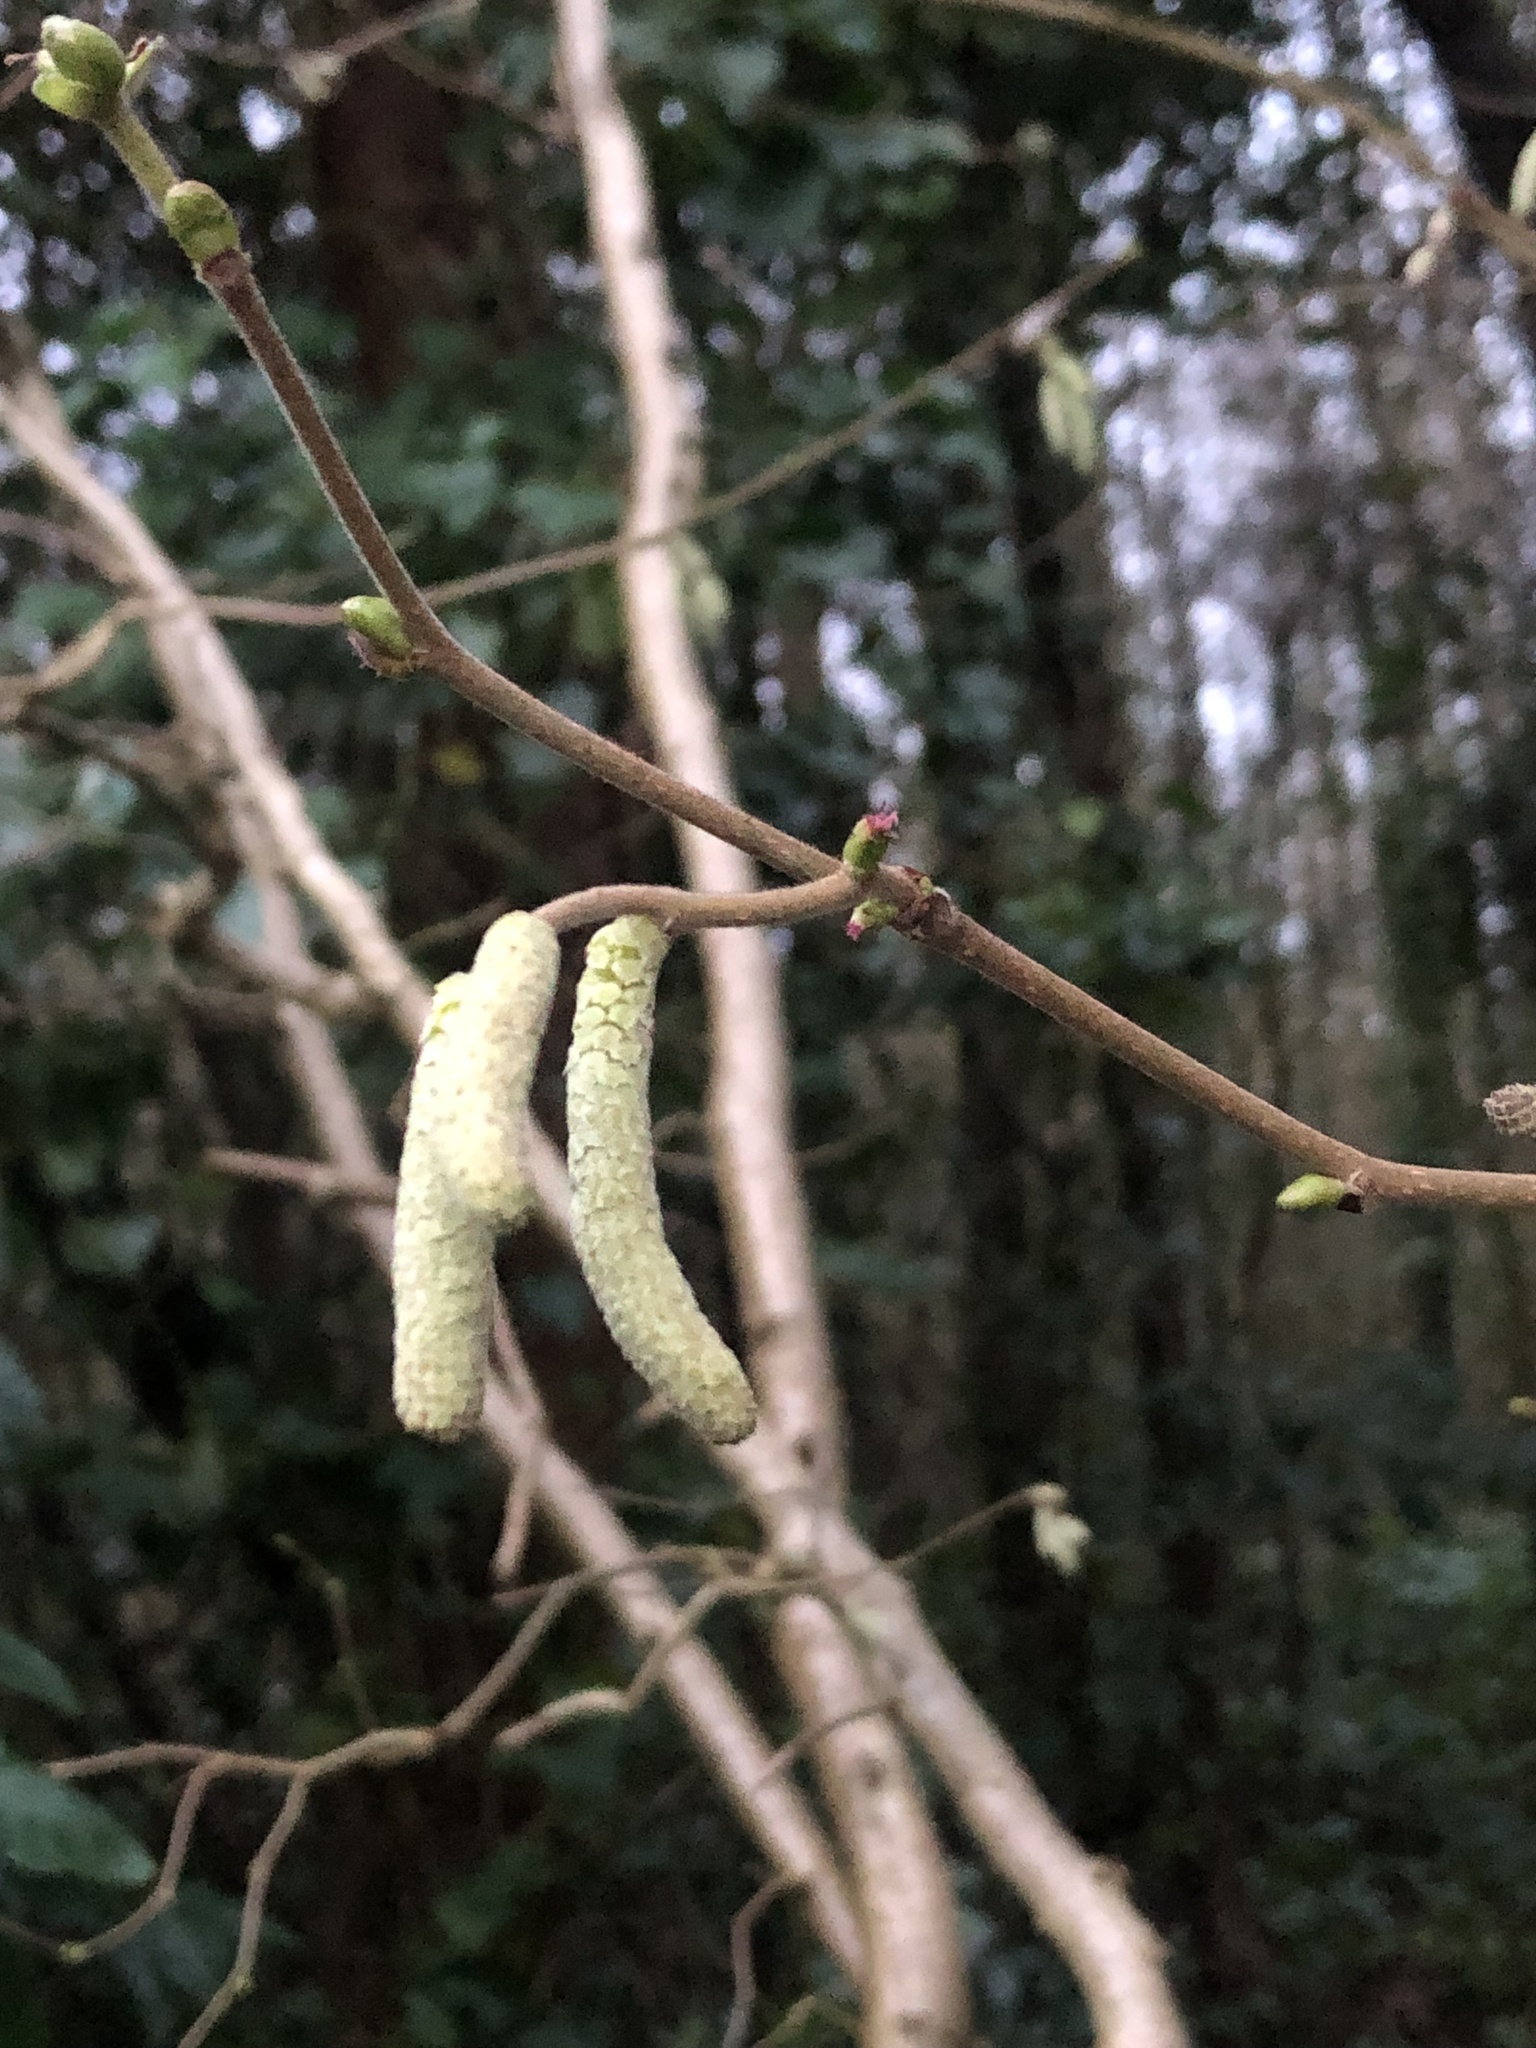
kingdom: Plantae
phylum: Tracheophyta
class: Magnoliopsida
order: Fagales
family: Betulaceae
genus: Corylus
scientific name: Corylus avellana
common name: European hazel
